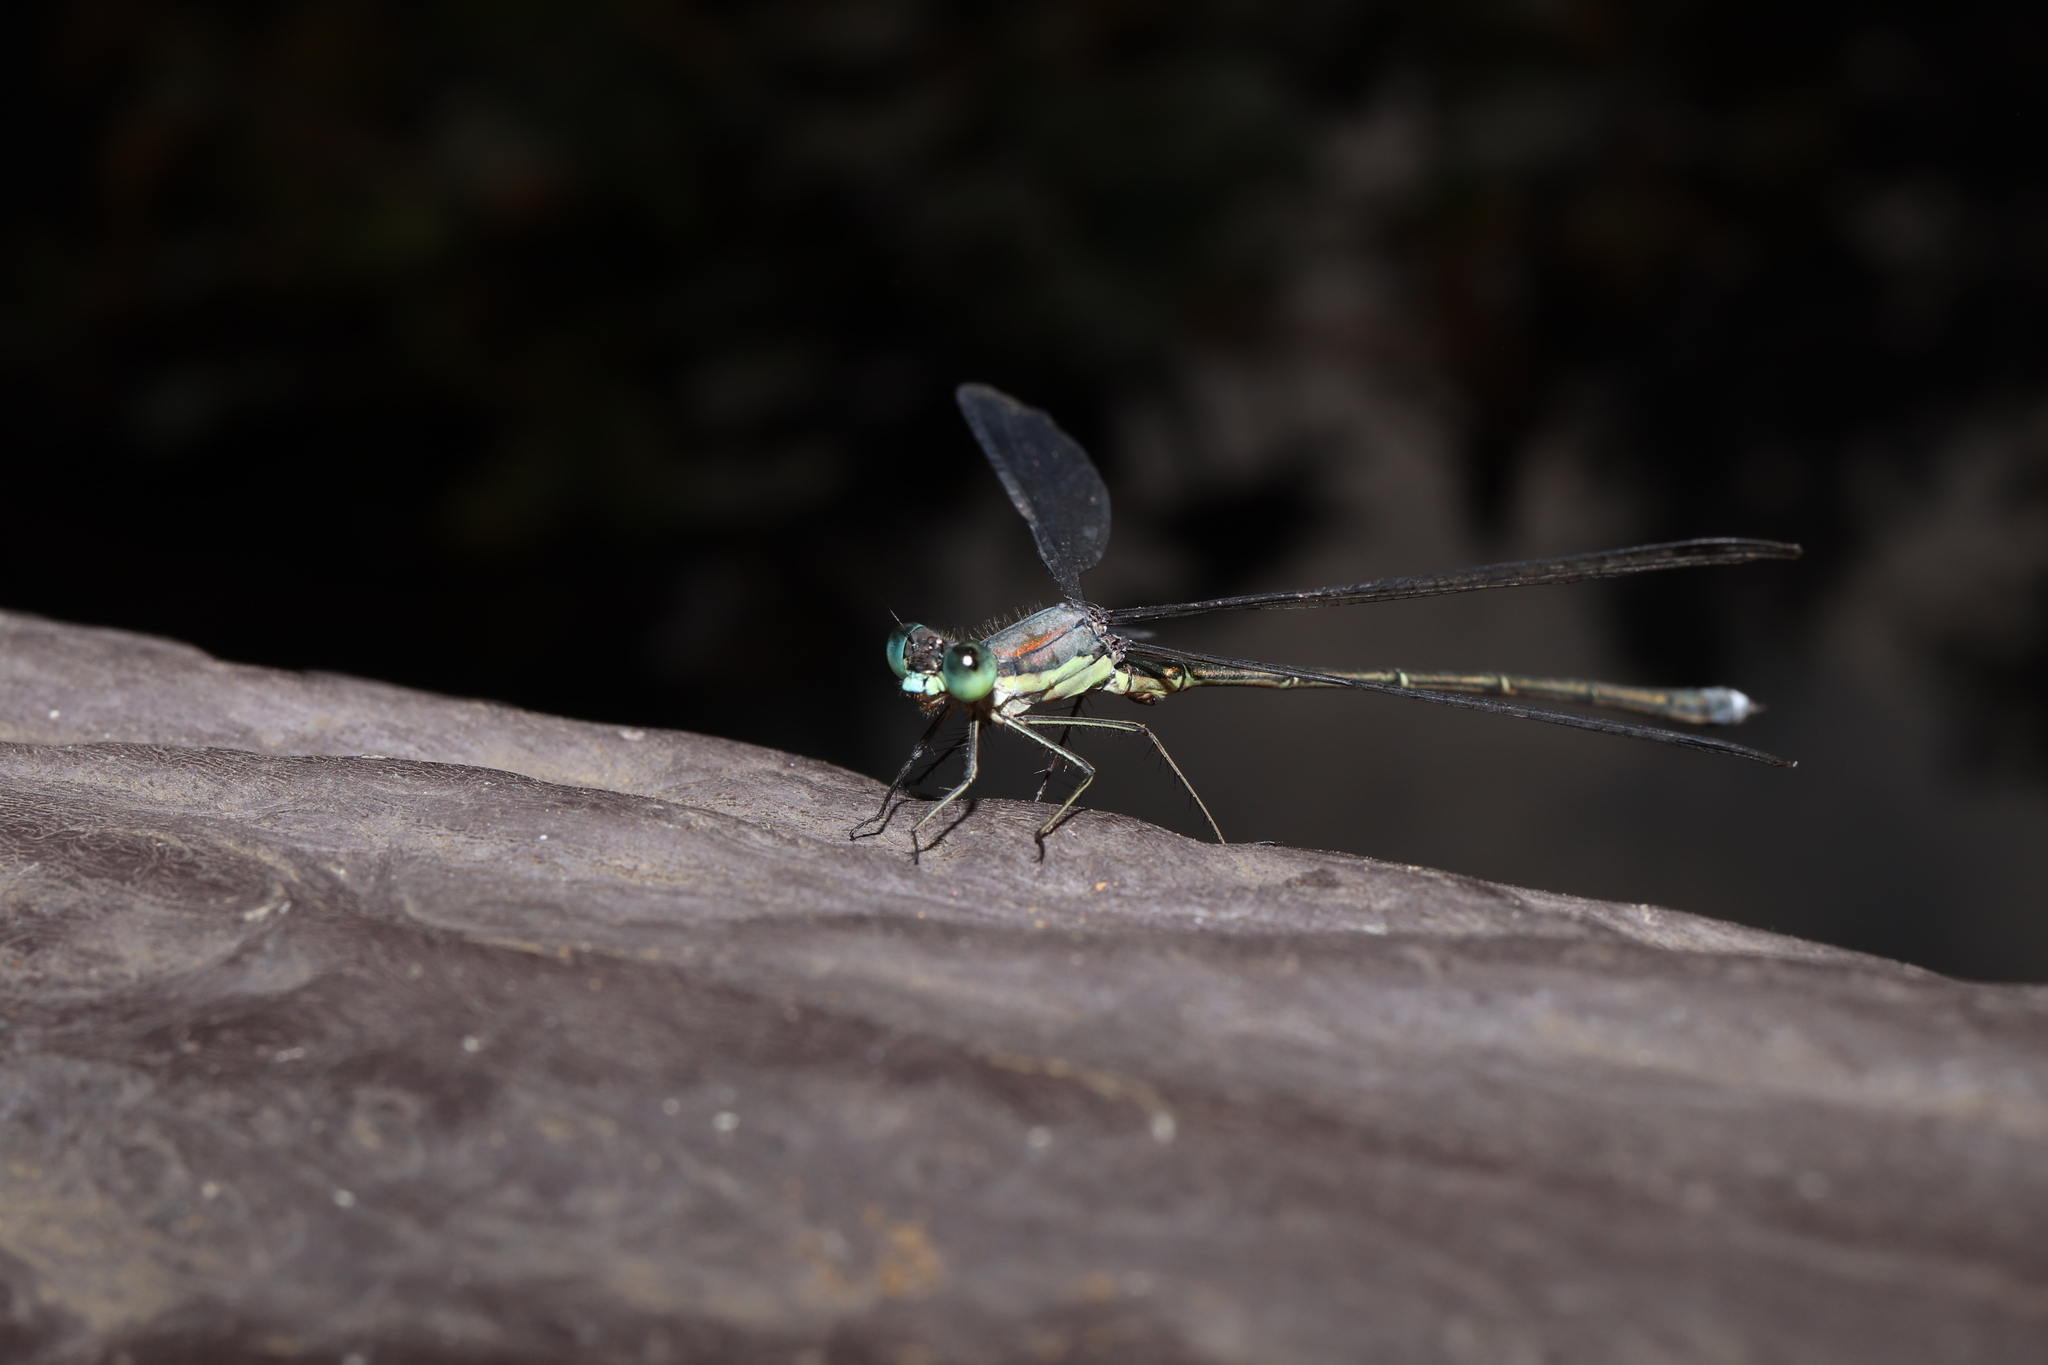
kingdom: Animalia
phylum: Arthropoda
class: Insecta
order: Odonata
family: Lestidae
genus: Lestes
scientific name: Lestes temporalis
